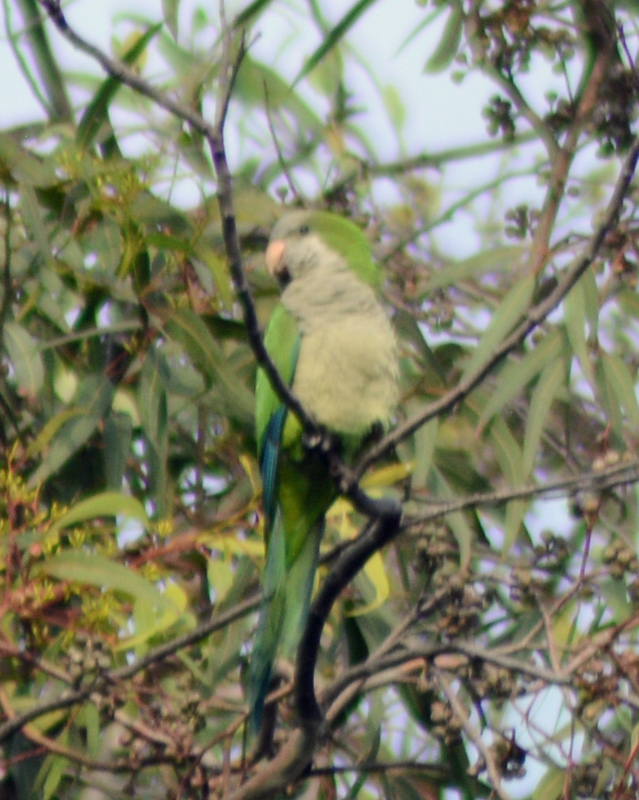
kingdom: Animalia
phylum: Chordata
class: Aves
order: Psittaciformes
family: Psittacidae
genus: Myiopsitta
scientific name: Myiopsitta monachus
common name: Monk parakeet
